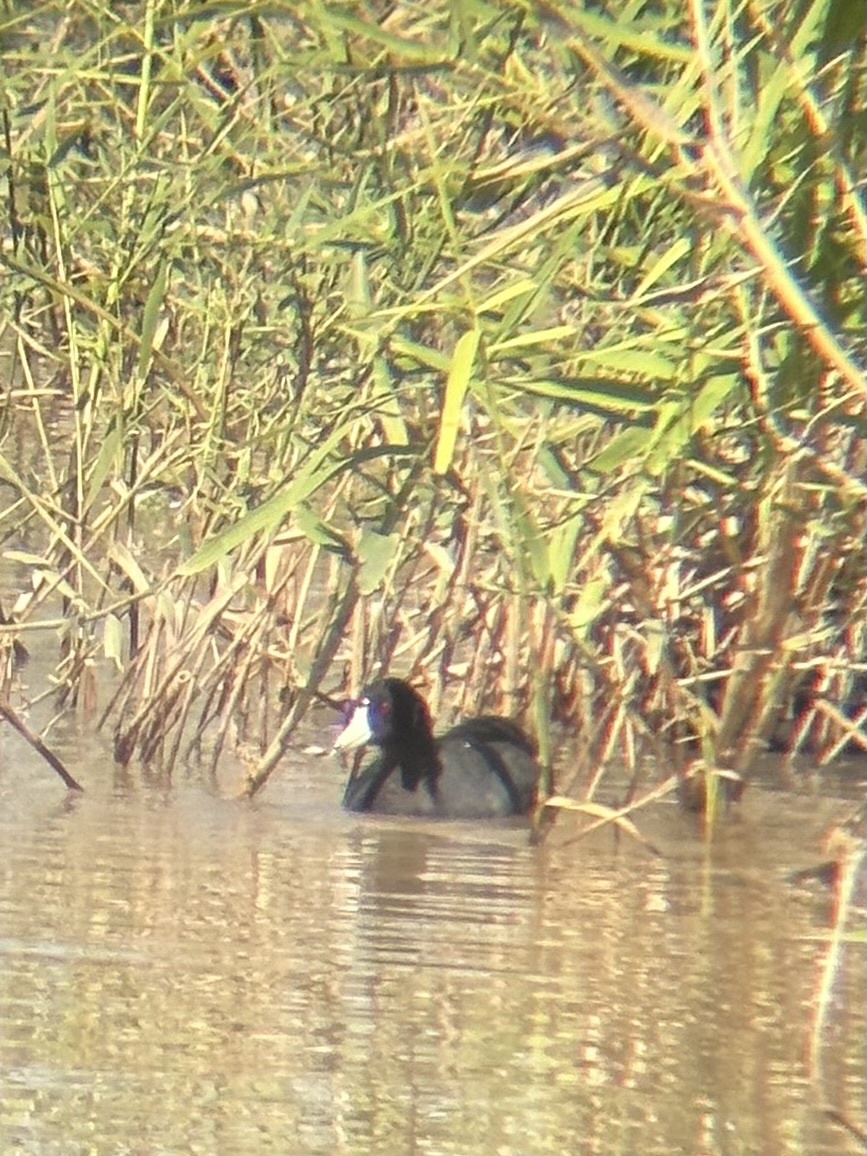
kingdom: Animalia
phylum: Chordata
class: Aves
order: Gruiformes
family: Rallidae
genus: Fulica
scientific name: Fulica americana
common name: American coot
